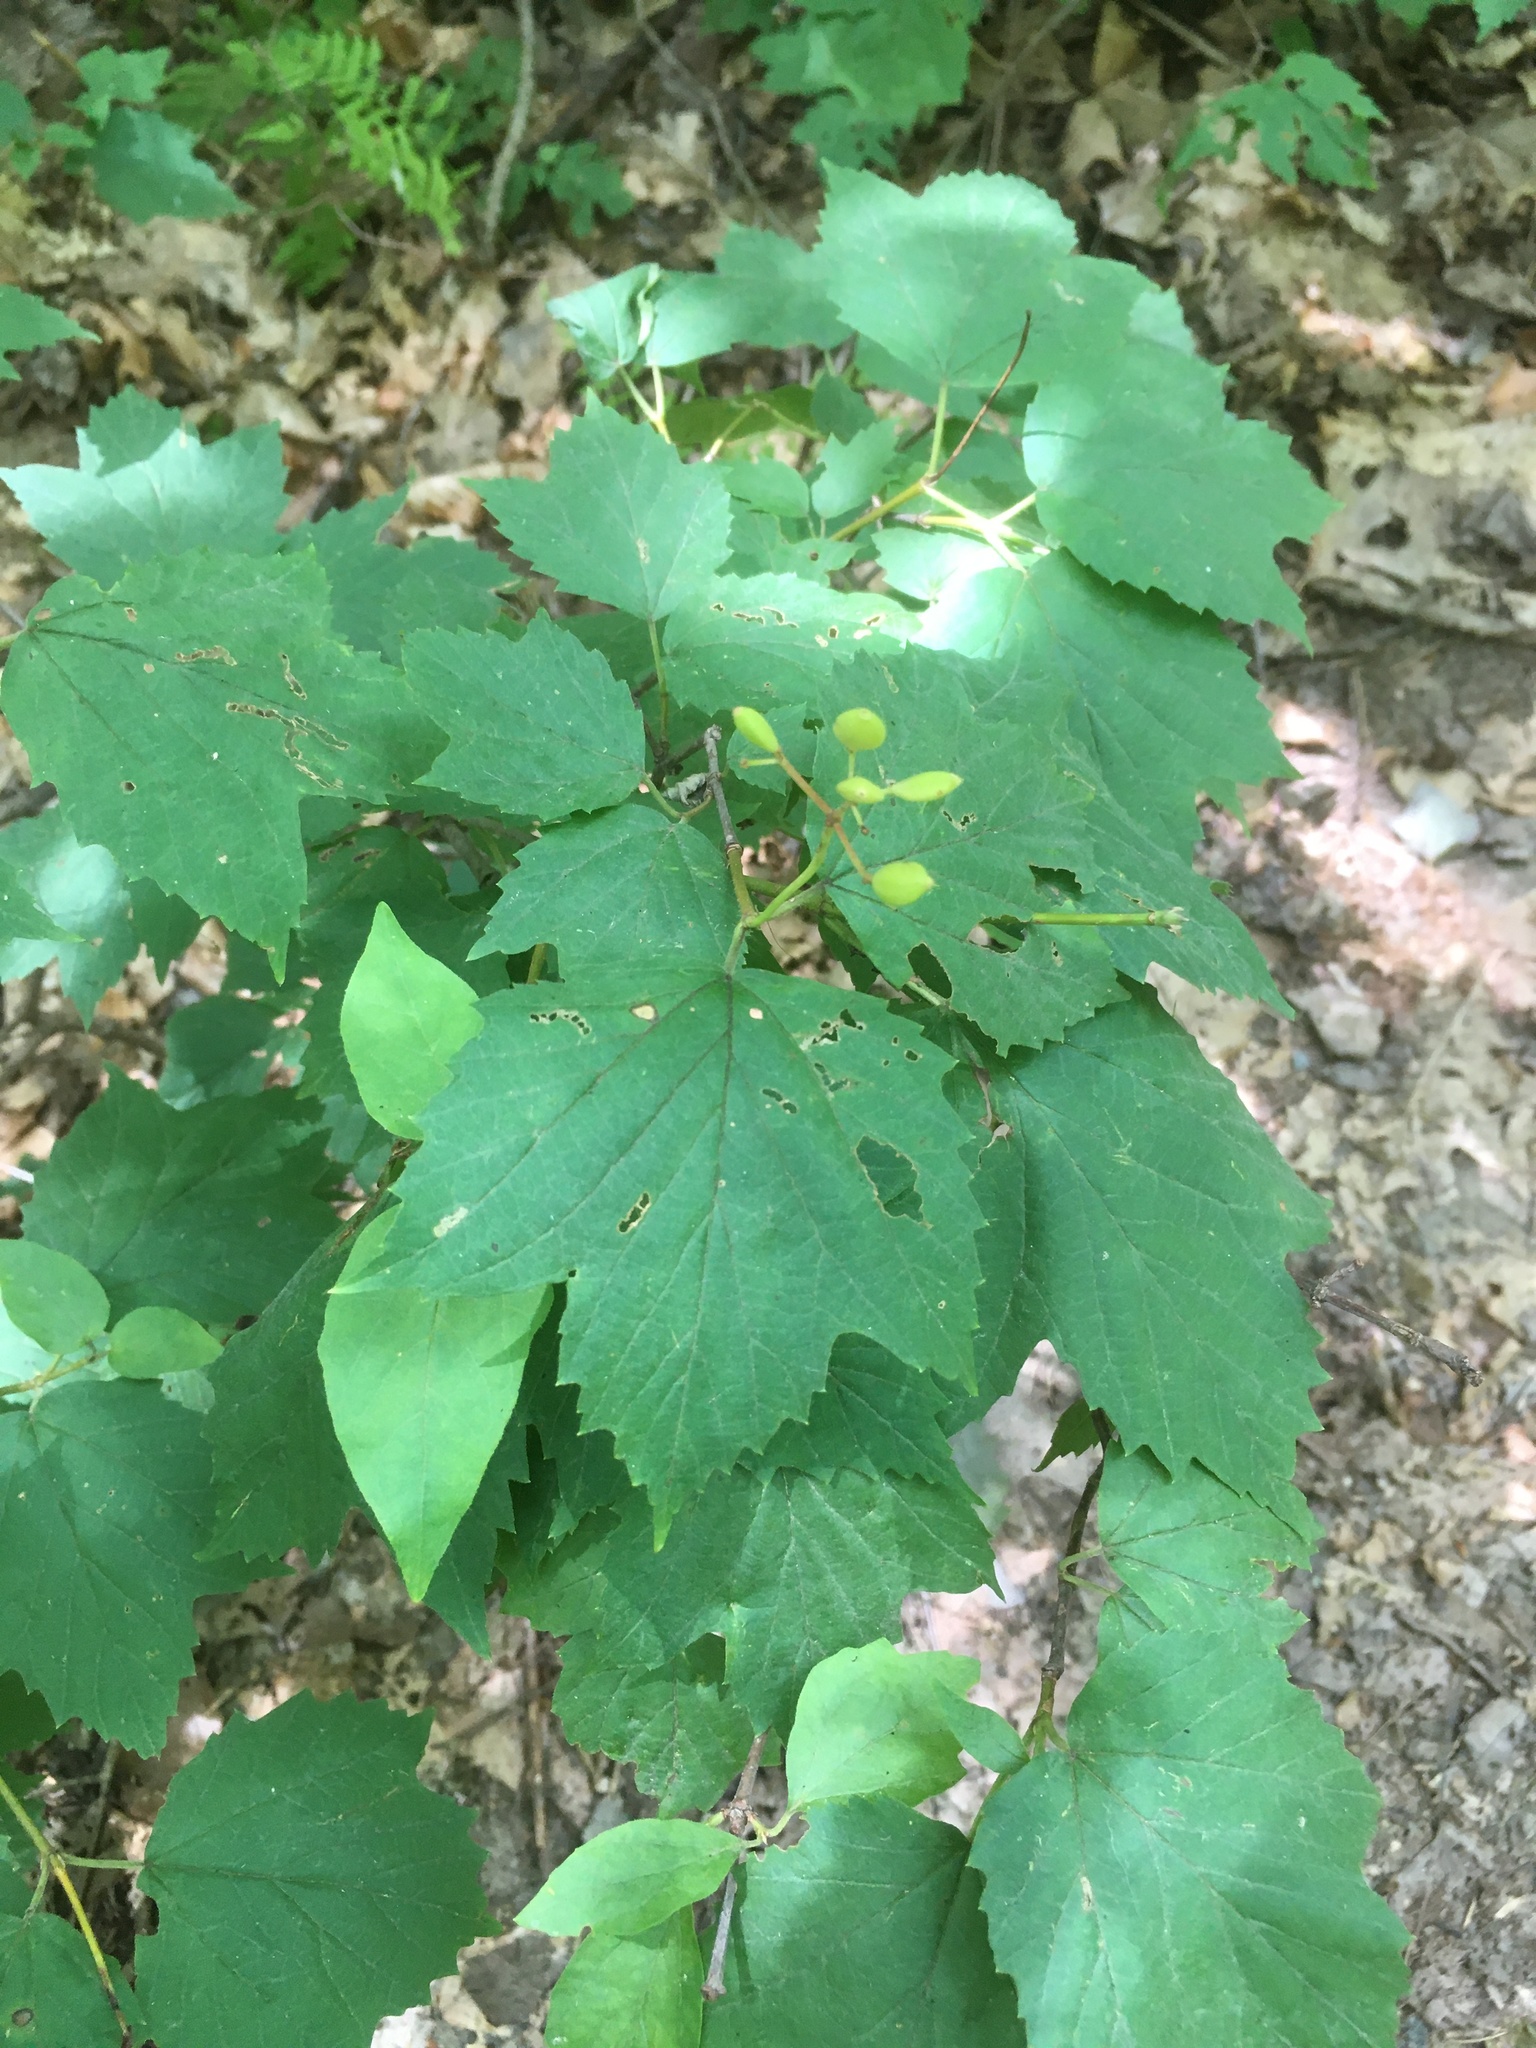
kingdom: Plantae
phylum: Tracheophyta
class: Magnoliopsida
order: Dipsacales
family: Viburnaceae
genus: Viburnum
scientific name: Viburnum acerifolium
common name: Dockmackie
